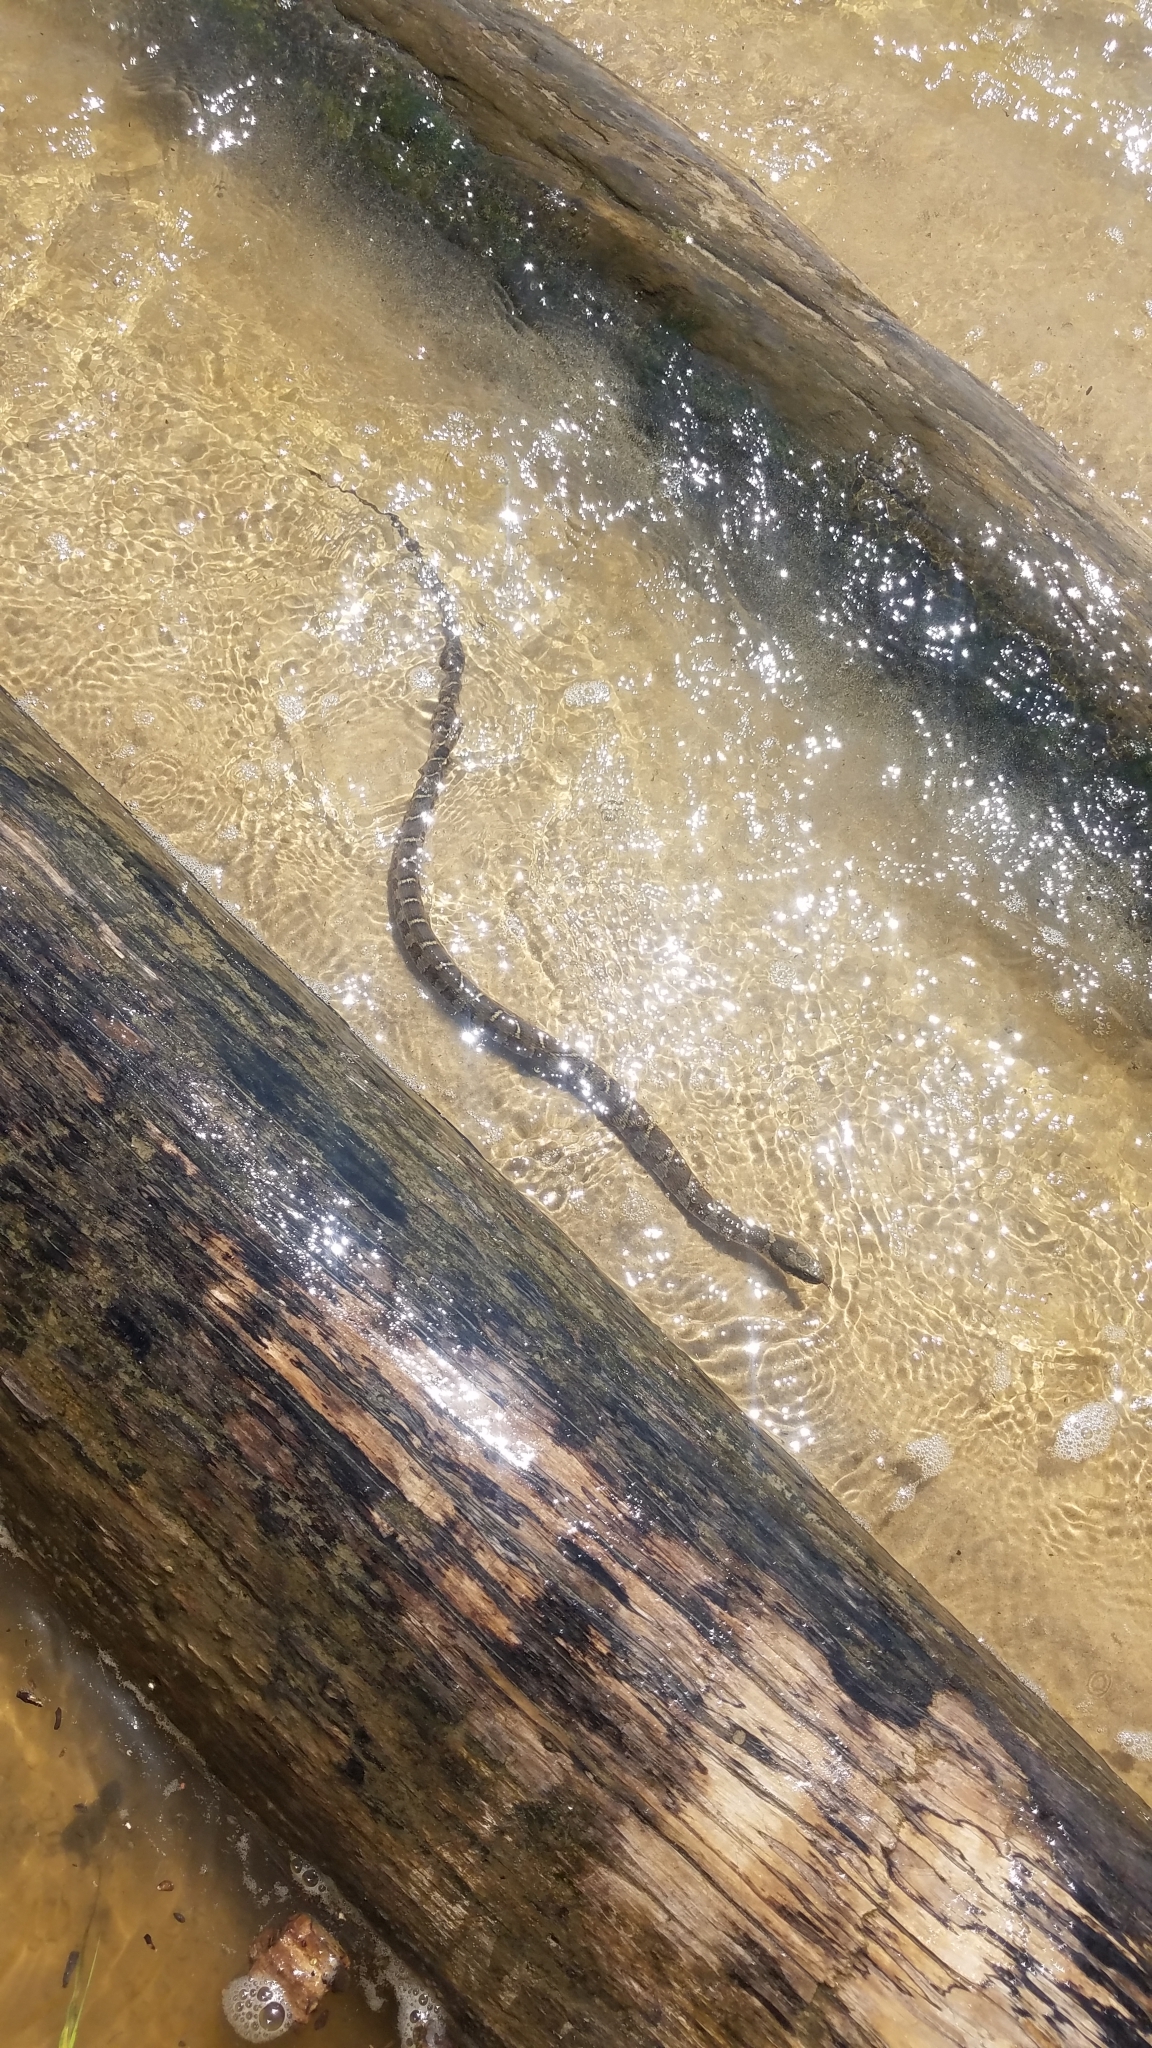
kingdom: Animalia
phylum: Chordata
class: Squamata
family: Colubridae
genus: Nerodia
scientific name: Nerodia sipedon
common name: Northern water snake
